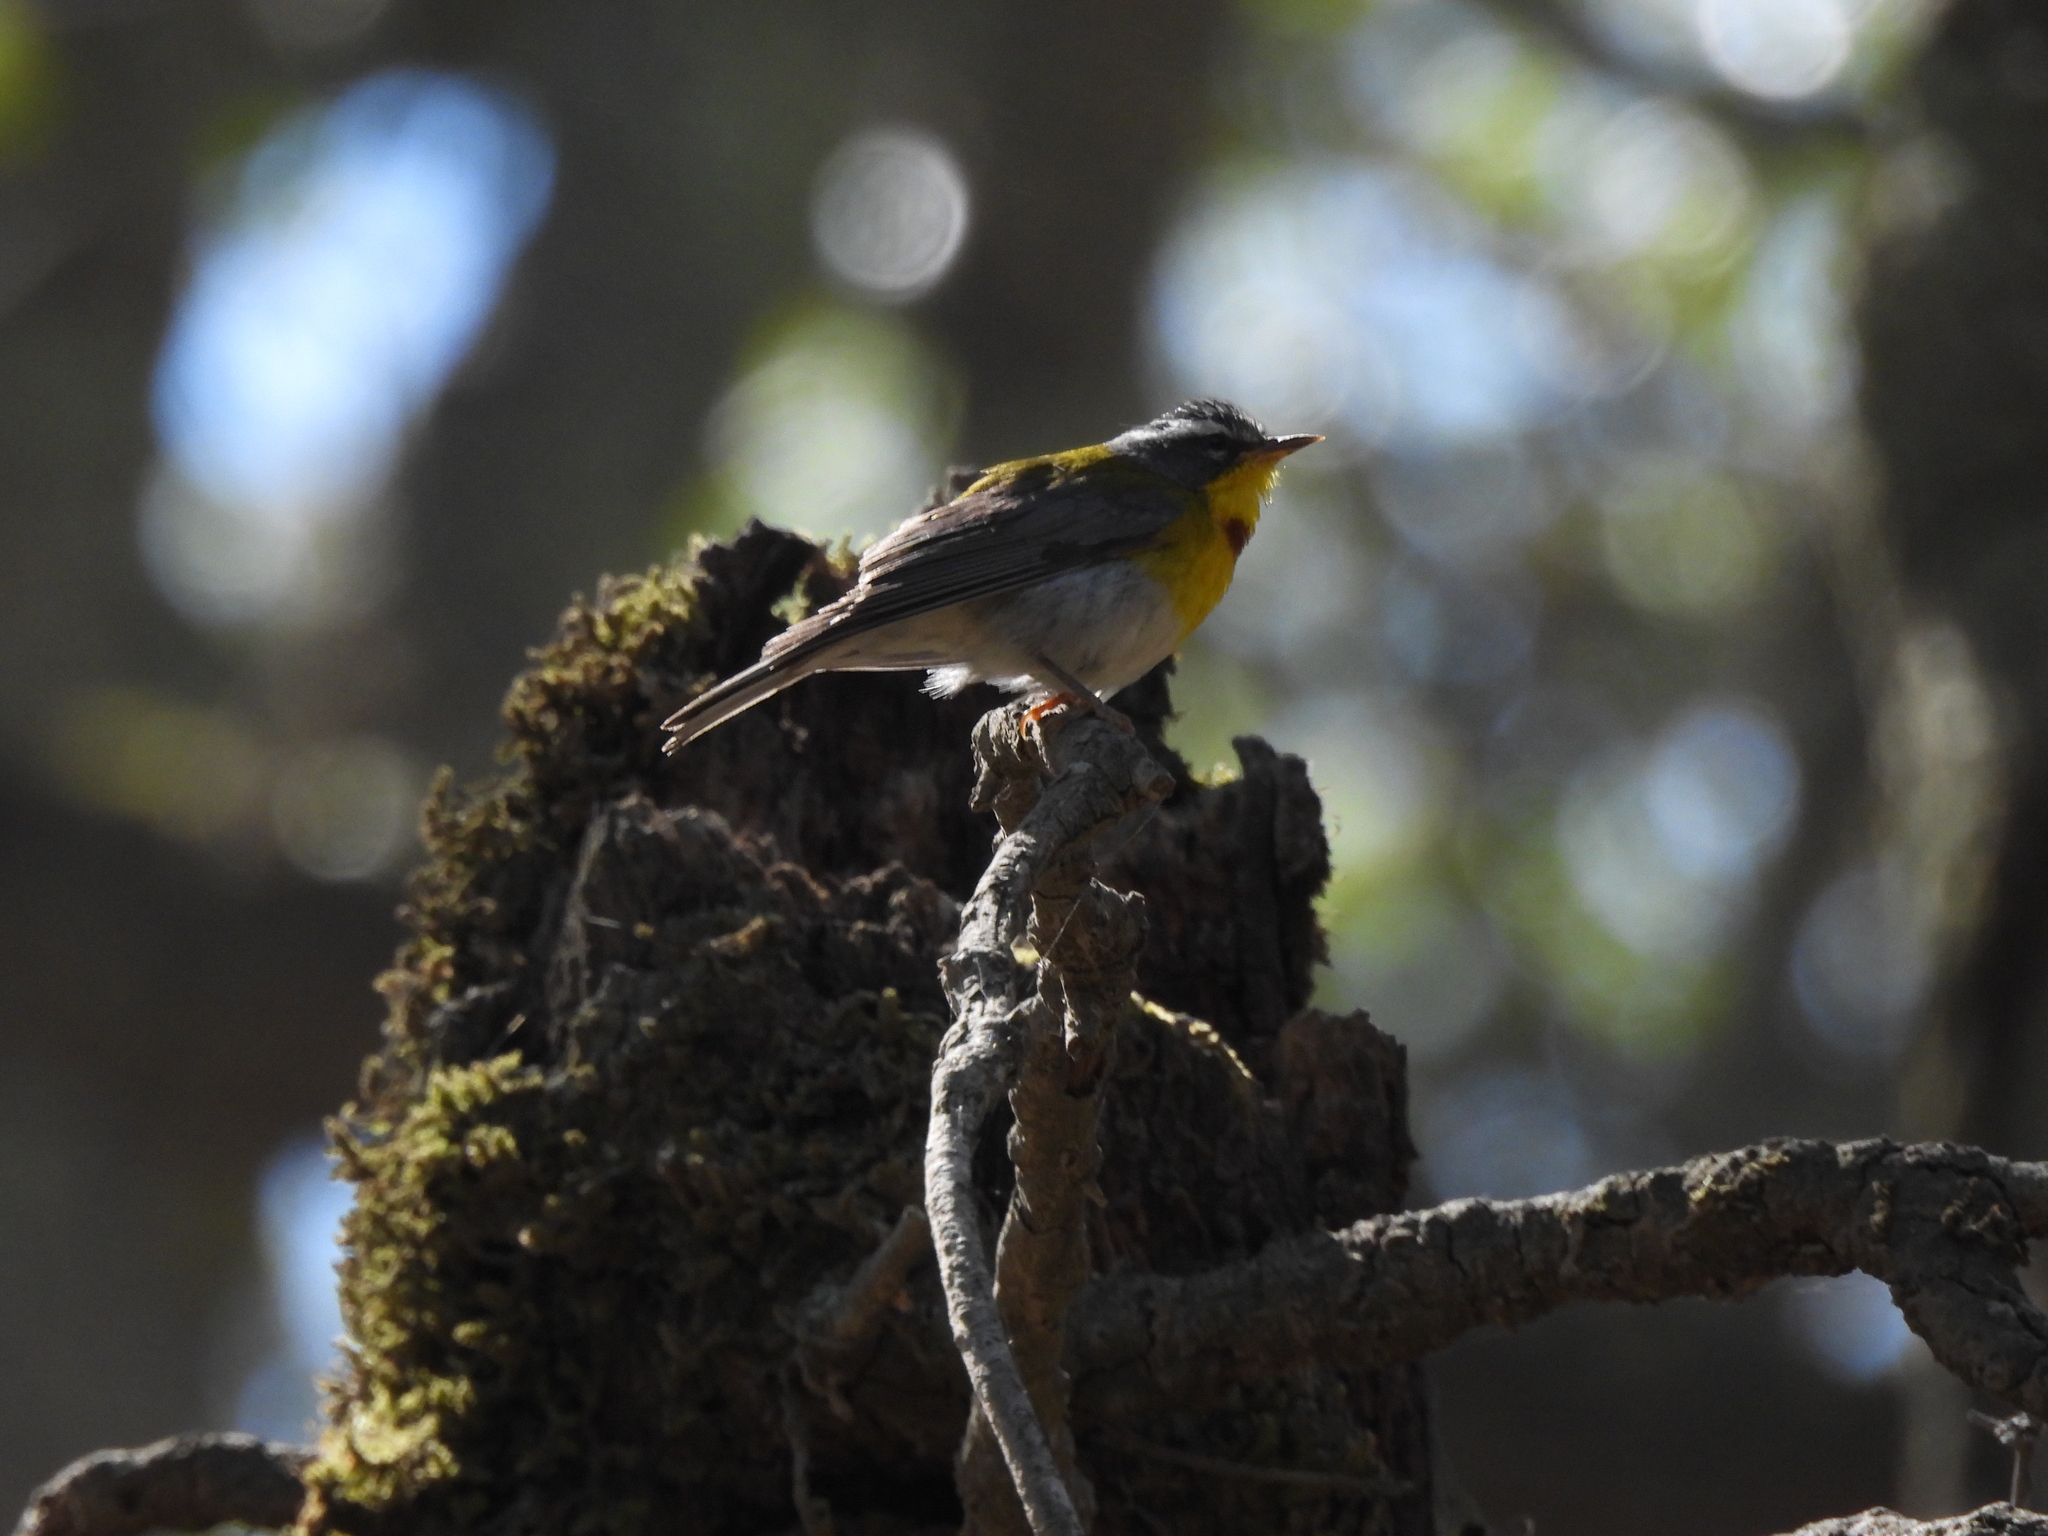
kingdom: Animalia
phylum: Chordata
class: Aves
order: Passeriformes
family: Parulidae
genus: Oreothlypis
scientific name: Oreothlypis superciliosa
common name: Crescent-chested warbler
